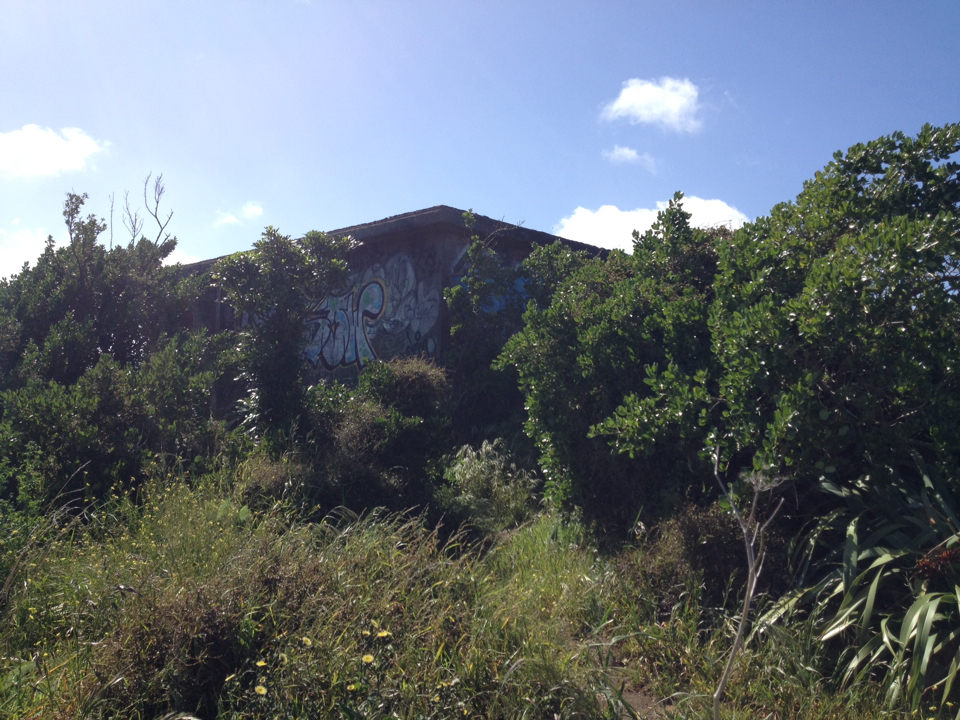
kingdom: Plantae
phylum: Tracheophyta
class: Magnoliopsida
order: Gentianales
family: Rubiaceae
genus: Coprosma
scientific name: Coprosma repens
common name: Tree bedstraw
